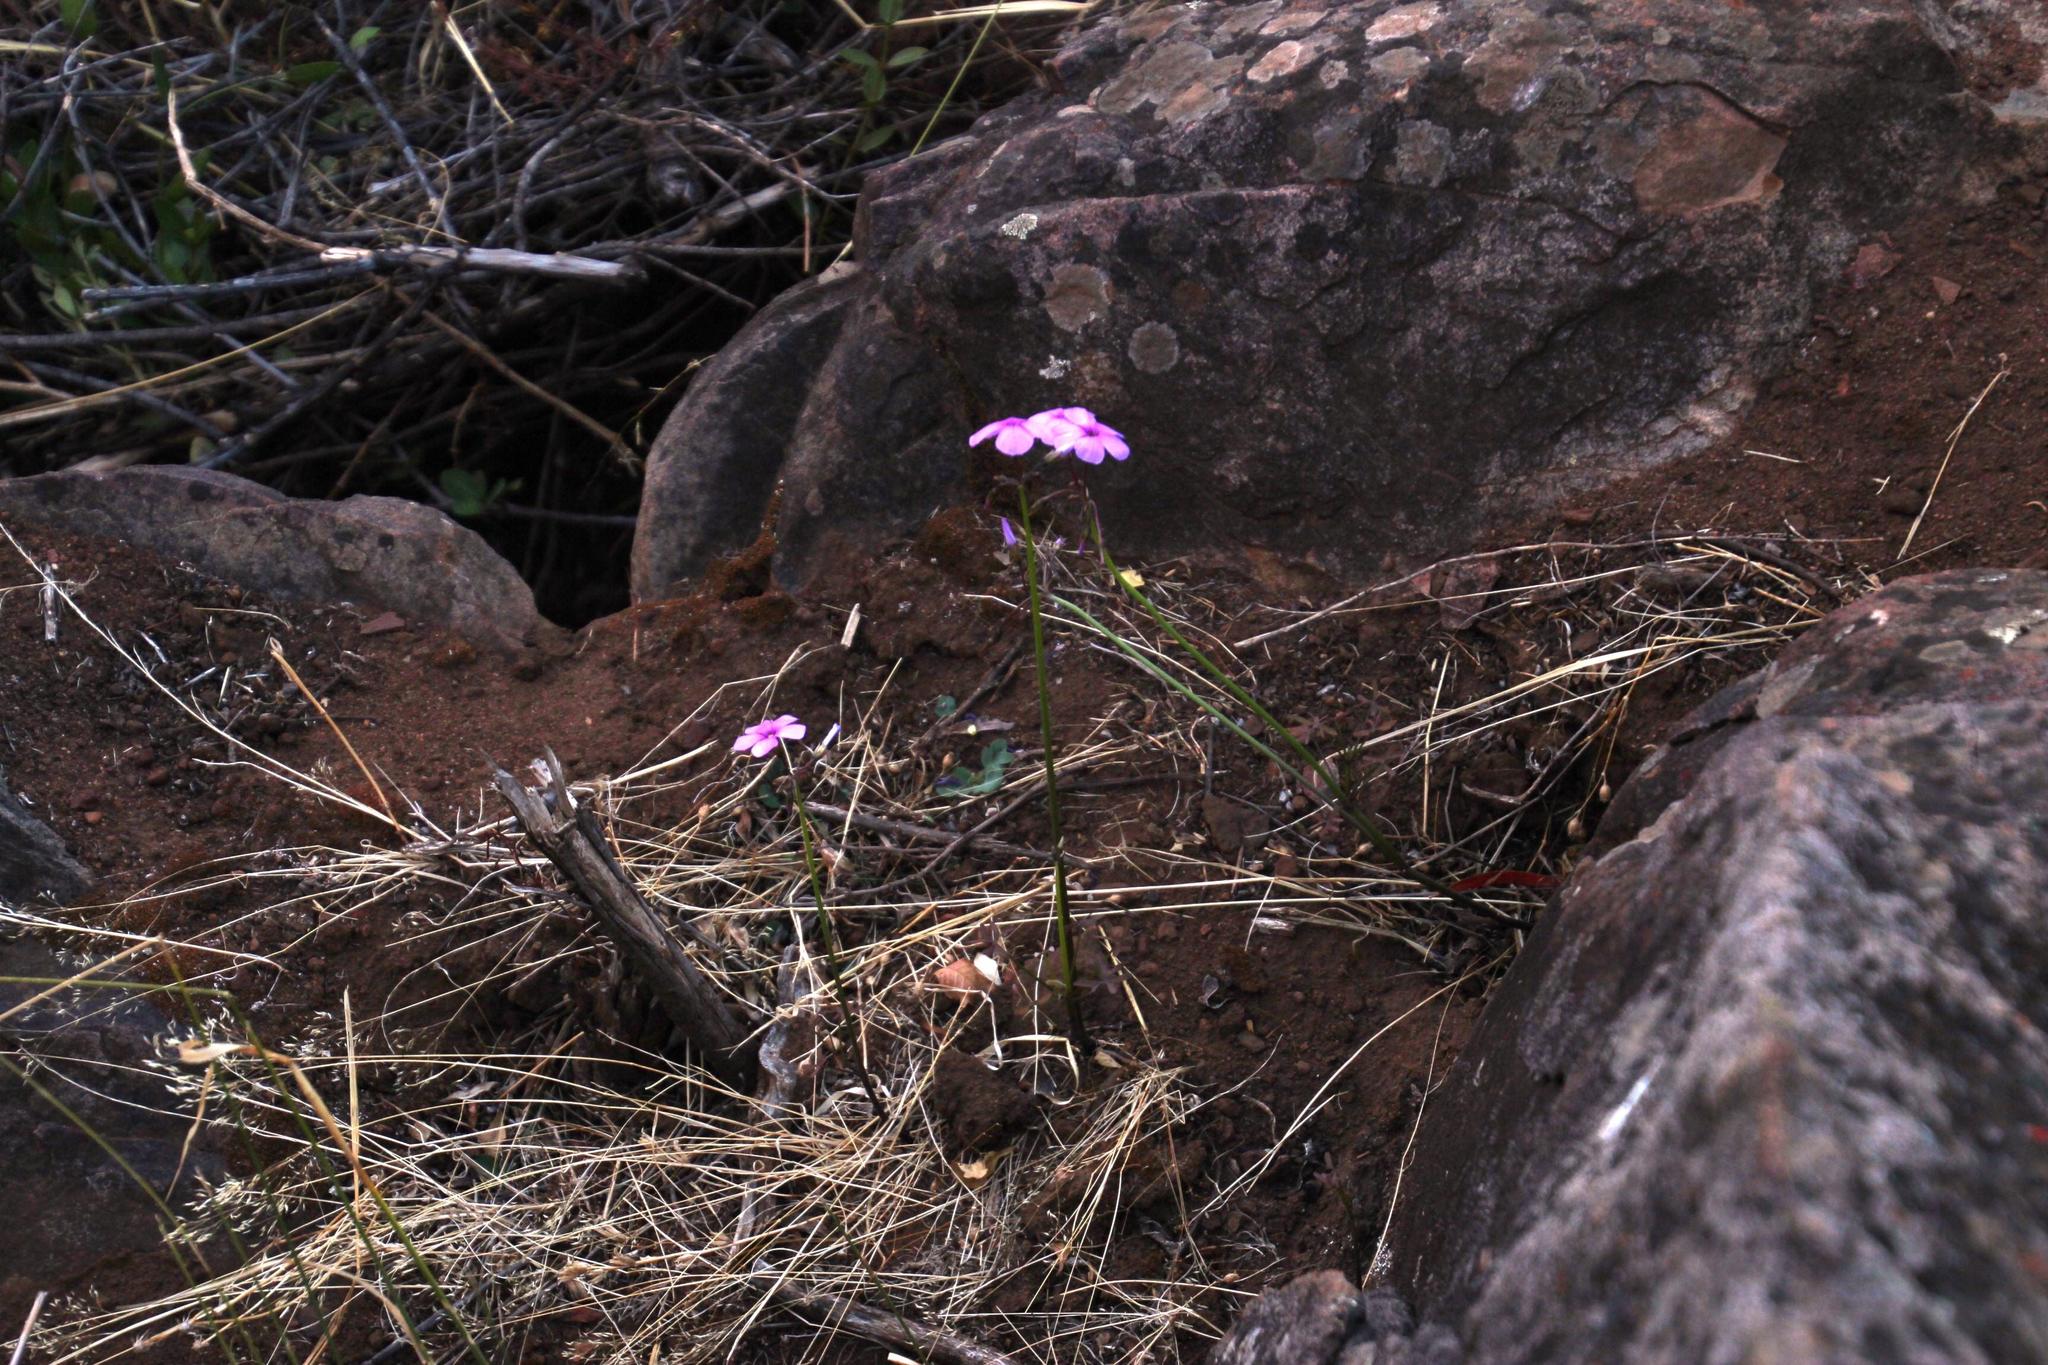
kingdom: Plantae
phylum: Tracheophyta
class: Magnoliopsida
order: Oxalidales
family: Oxalidaceae
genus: Oxalis
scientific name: Oxalis livida
